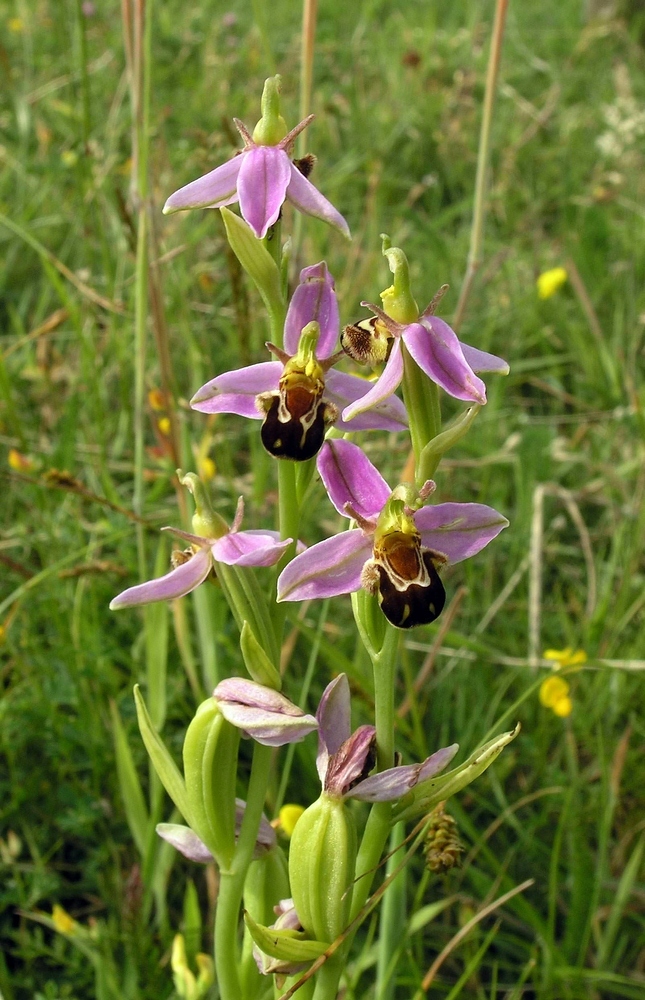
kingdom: Plantae
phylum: Tracheophyta
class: Liliopsida
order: Asparagales
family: Orchidaceae
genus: Ophrys
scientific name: Ophrys apifera
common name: Bee orchid
